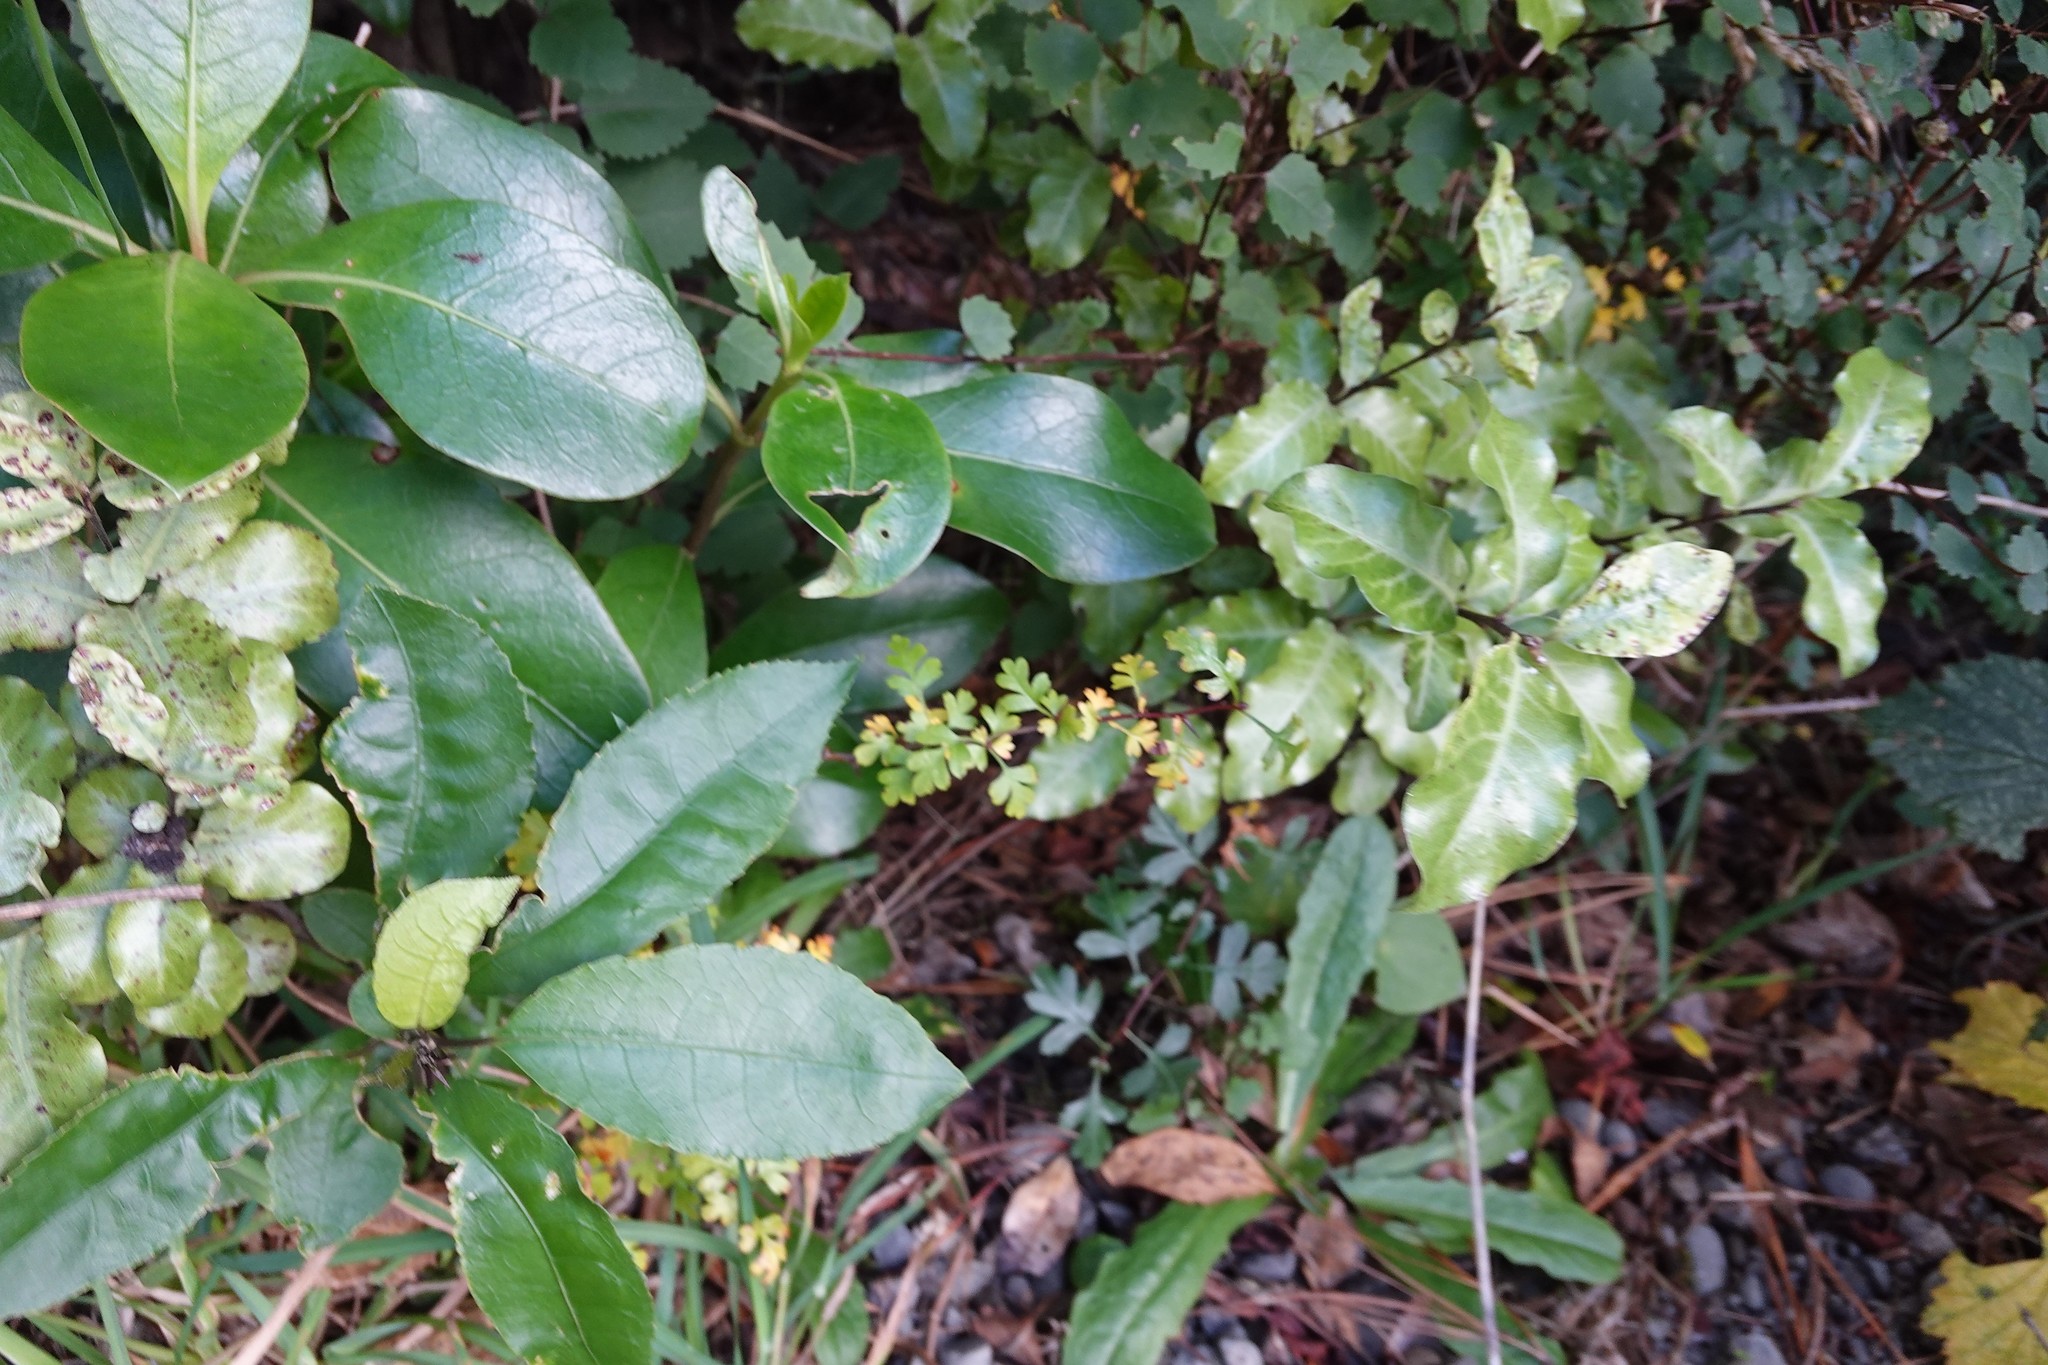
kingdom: Plantae
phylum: Tracheophyta
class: Magnoliopsida
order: Rosales
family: Rosaceae
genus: Crataegus
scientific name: Crataegus monogyna
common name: Hawthorn
